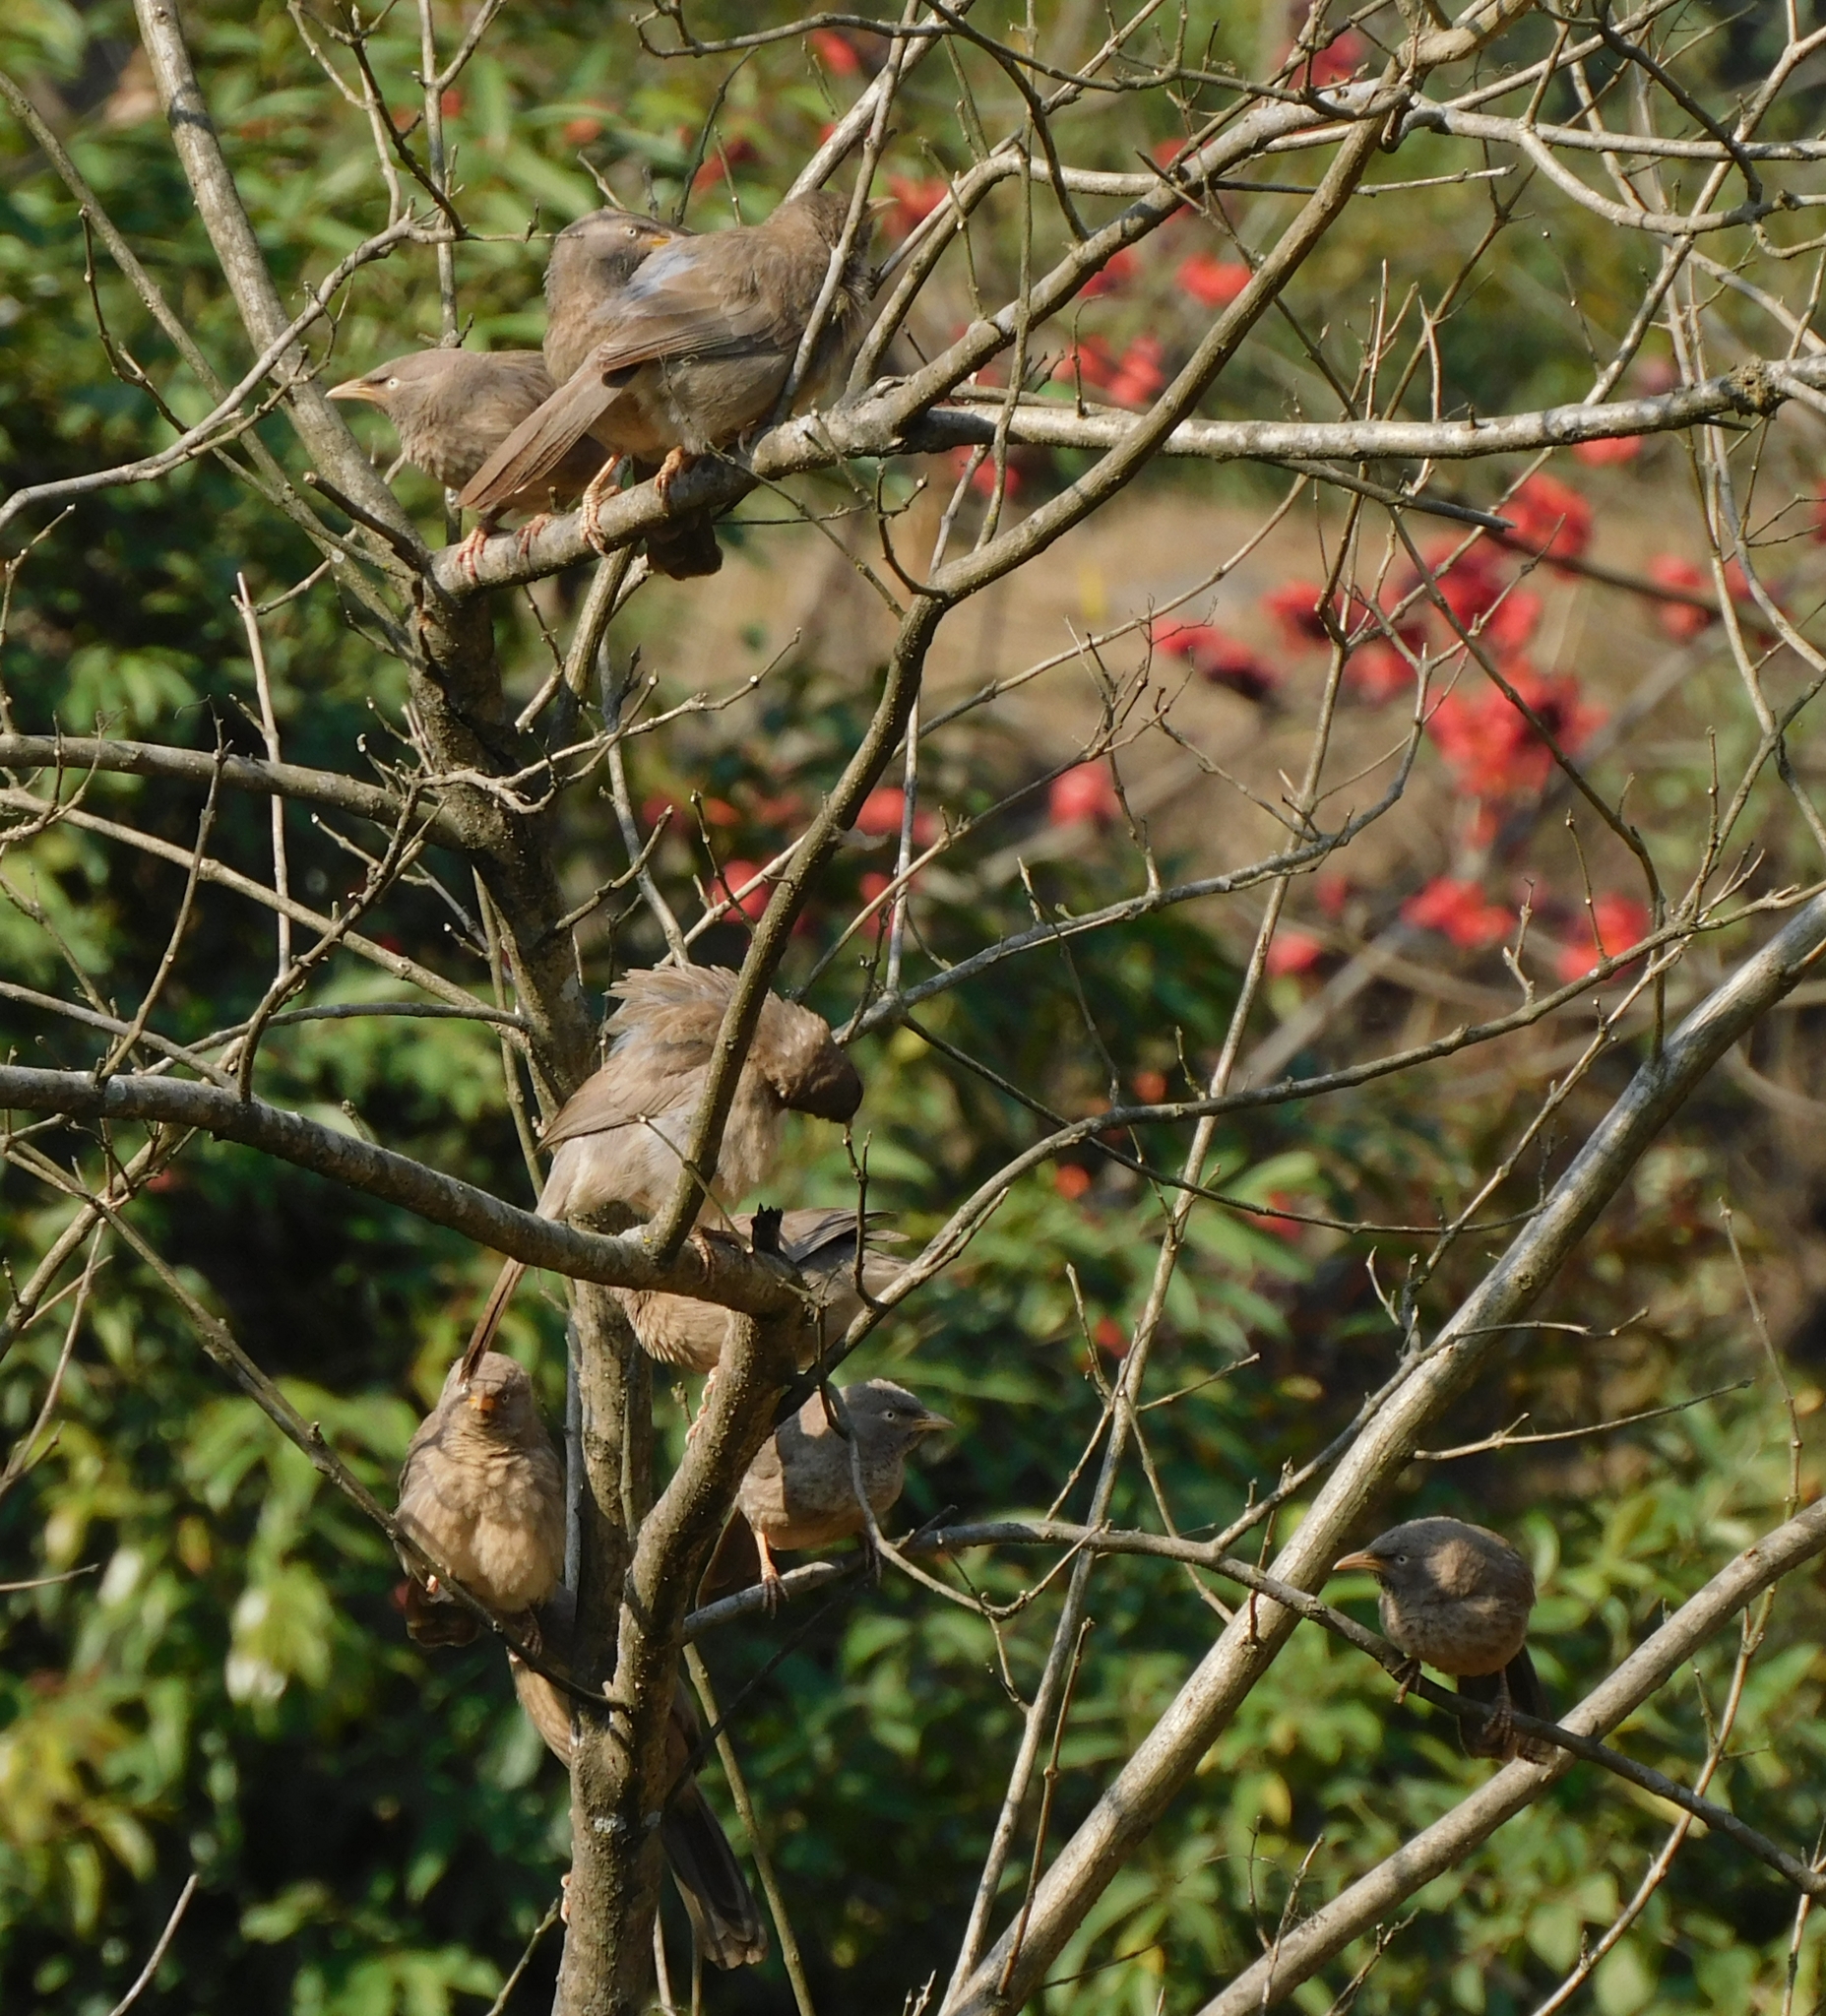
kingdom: Animalia
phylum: Chordata
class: Aves
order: Passeriformes
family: Leiothrichidae
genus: Turdoides
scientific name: Turdoides striata
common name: Jungle babbler
